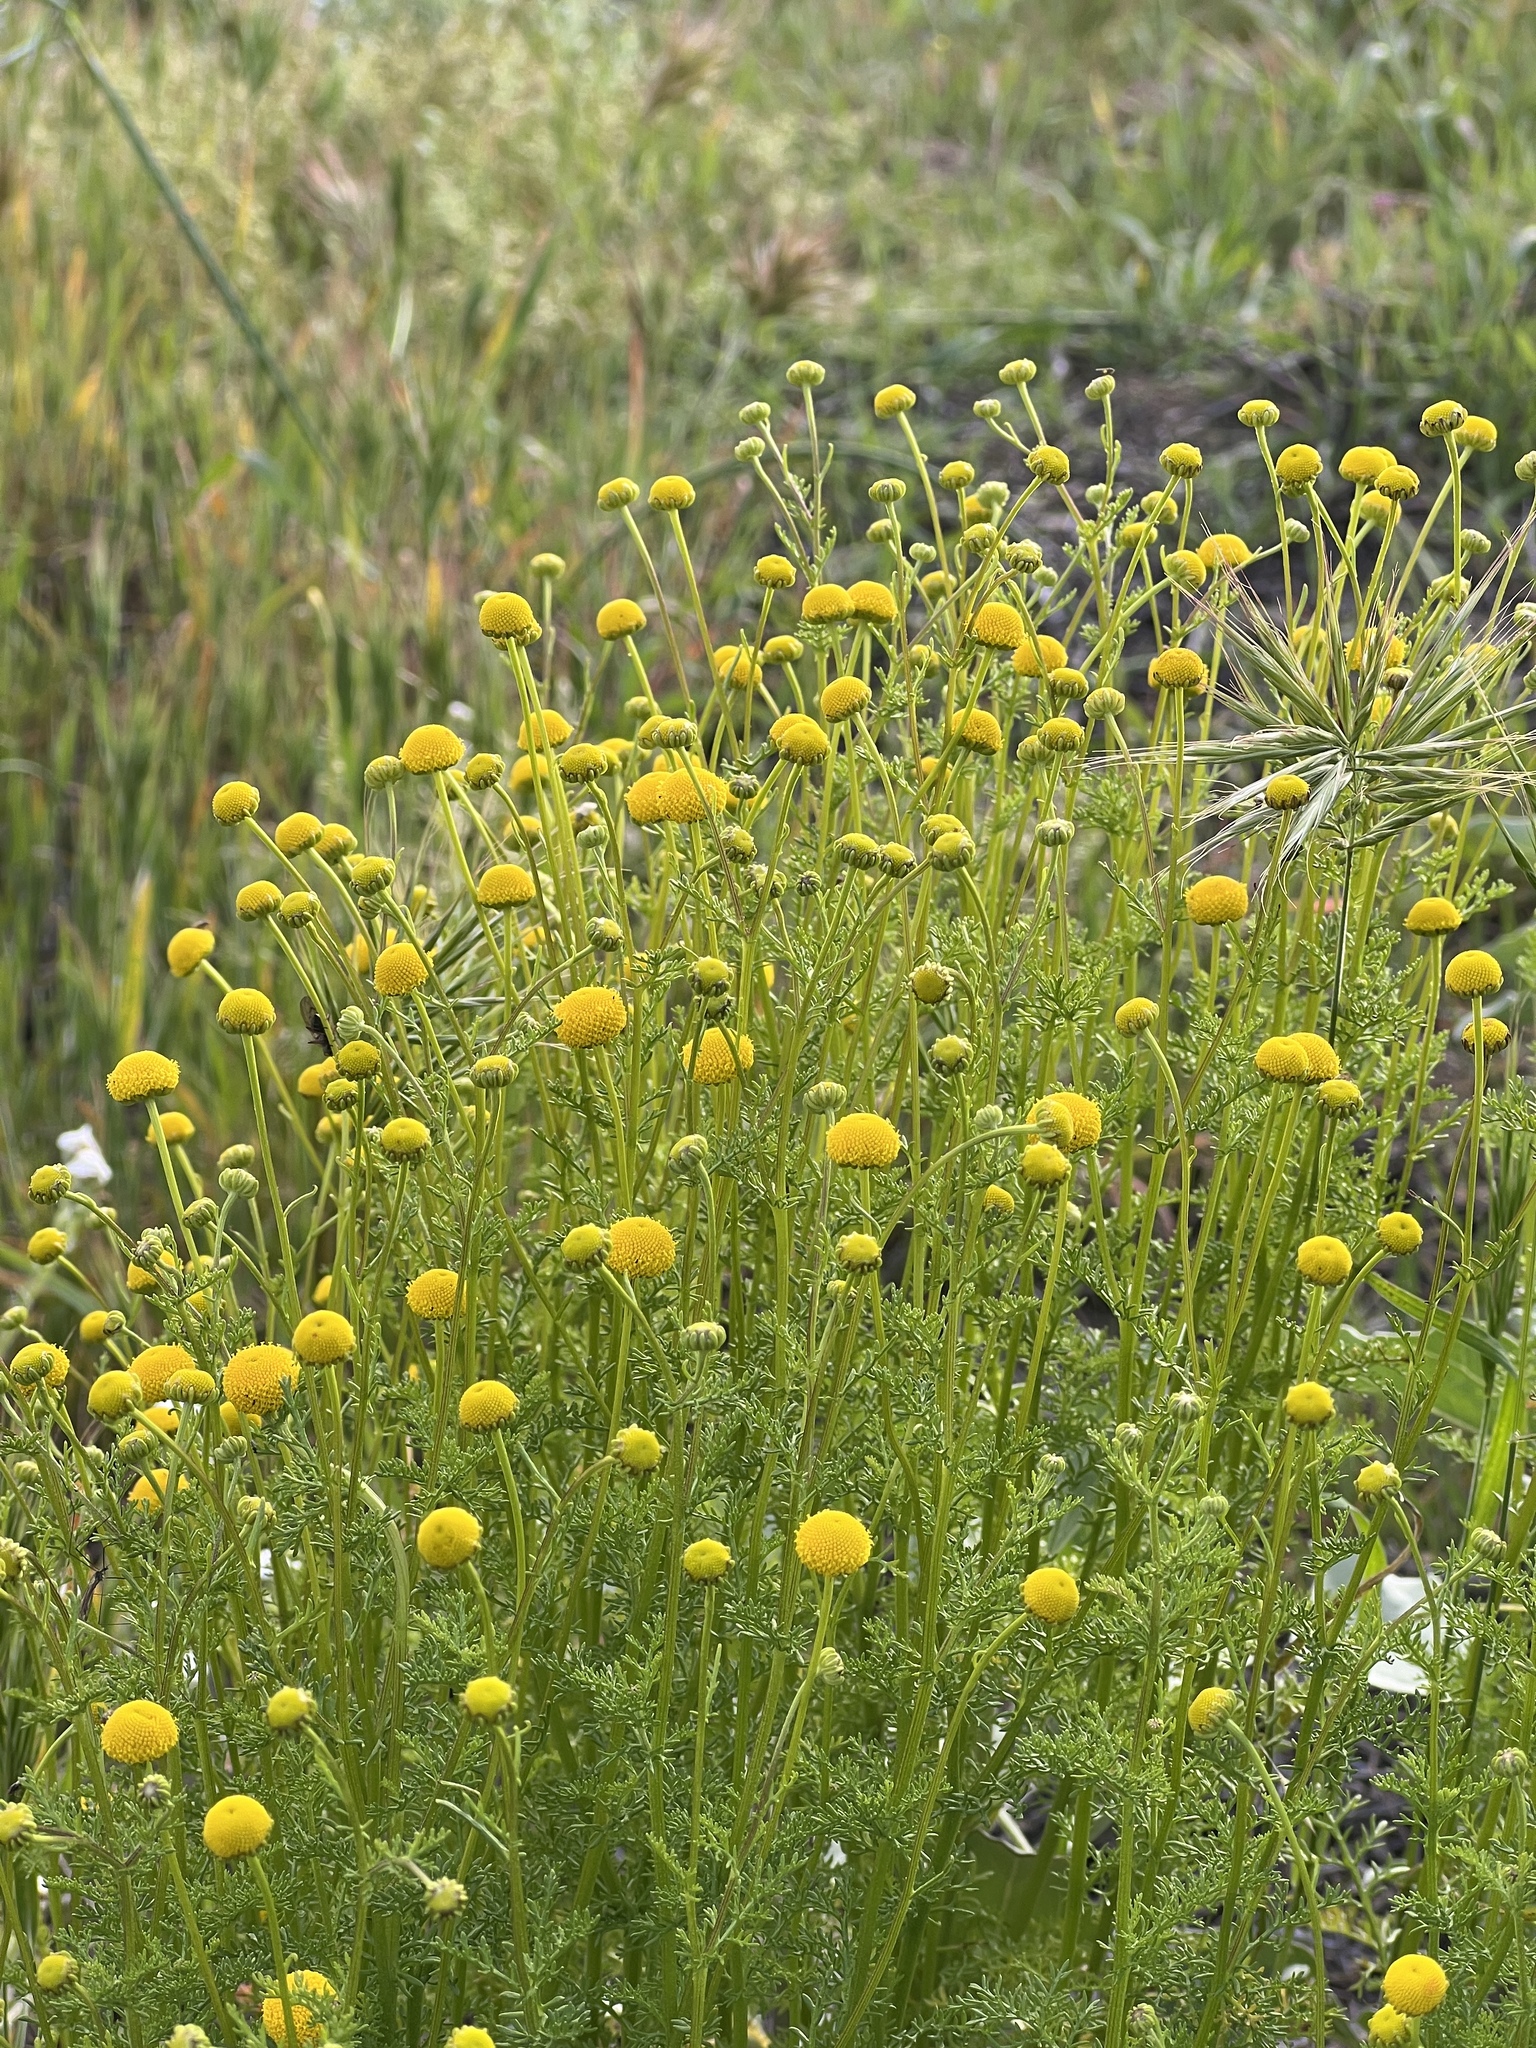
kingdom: Plantae
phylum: Tracheophyta
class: Magnoliopsida
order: Asterales
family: Asteraceae
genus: Oncosiphon
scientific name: Oncosiphon pilulifer
